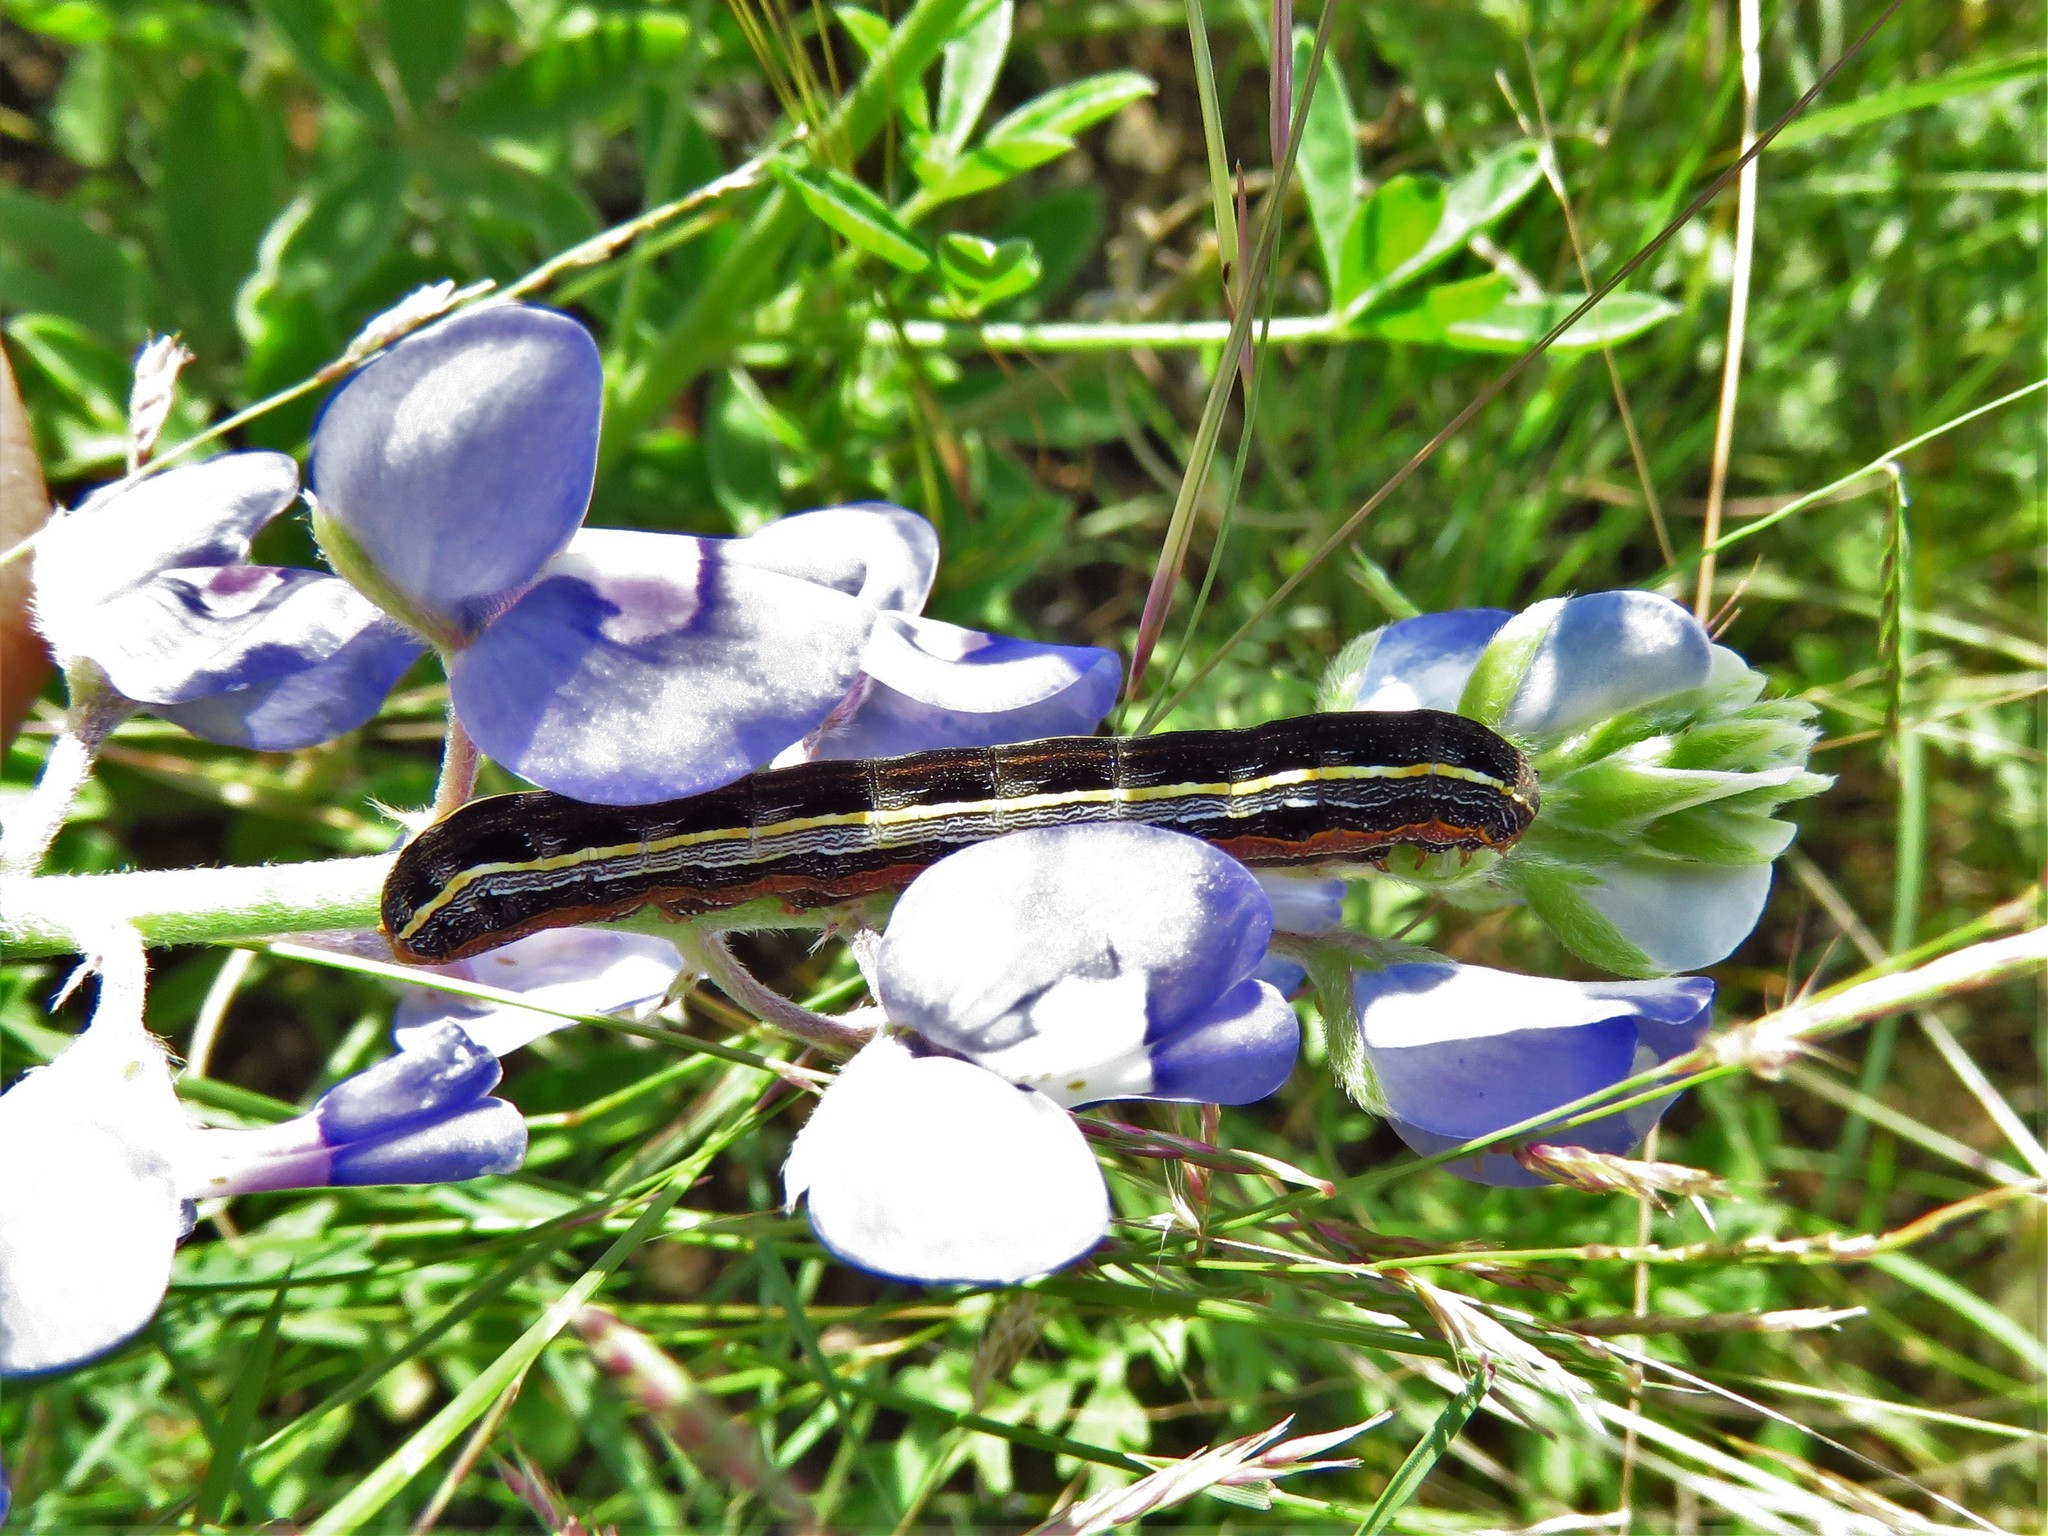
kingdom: Animalia
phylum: Arthropoda
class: Insecta
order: Lepidoptera
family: Noctuidae
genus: Spodoptera
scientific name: Spodoptera ornithogalli
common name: Yellow-striped armyworm
